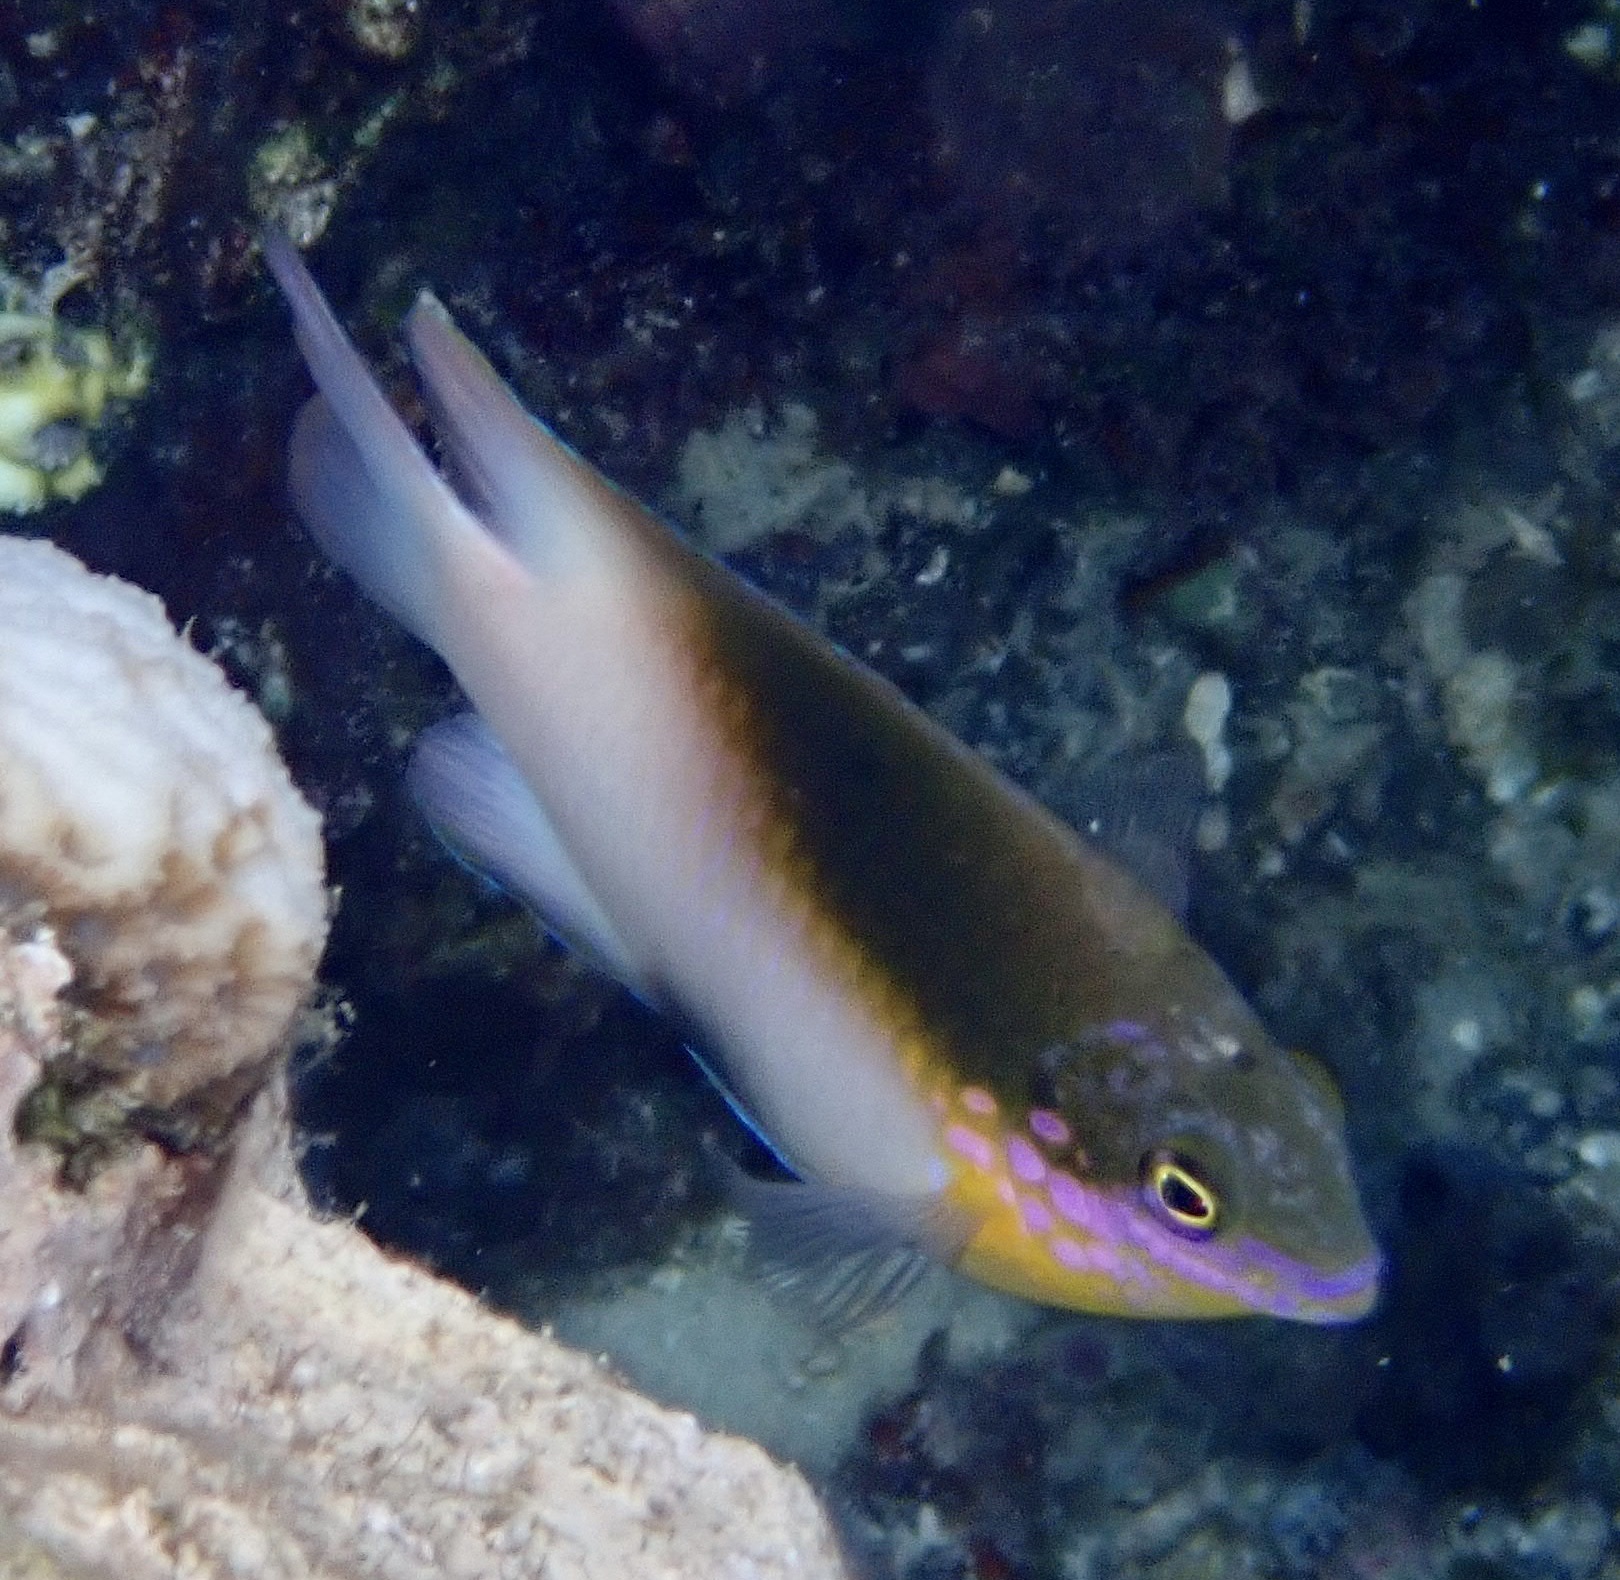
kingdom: Animalia
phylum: Chordata
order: Perciformes
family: Pomacentridae
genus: Dischistodus
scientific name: Dischistodus melanotus
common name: Black-vent damsel
